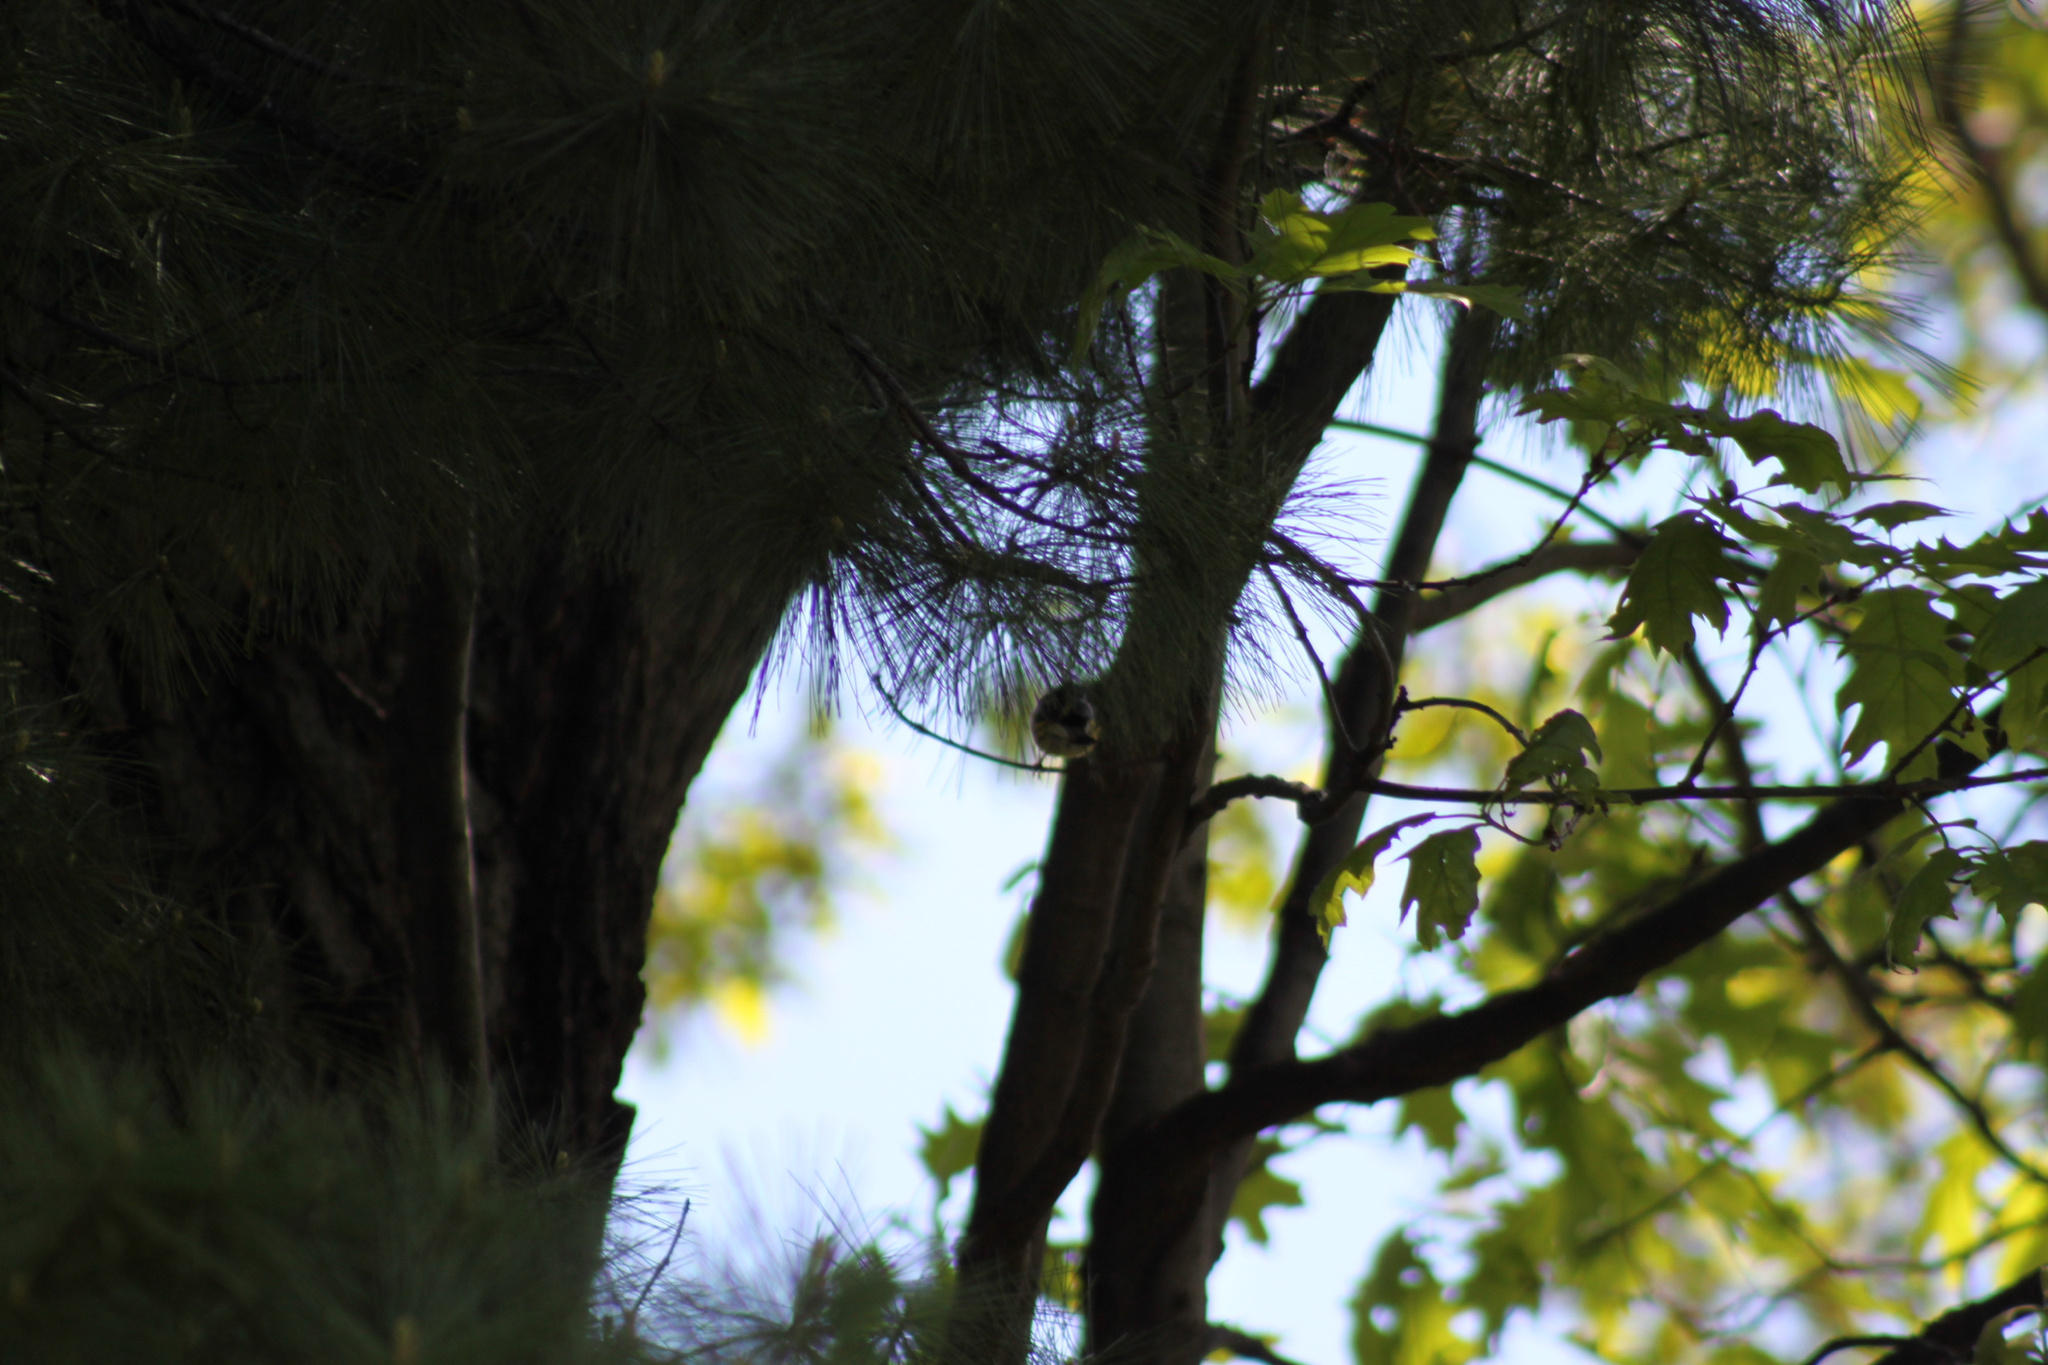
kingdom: Animalia
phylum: Chordata
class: Aves
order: Passeriformes
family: Parulidae
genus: Setophaga
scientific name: Setophaga magnolia
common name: Magnolia warbler
